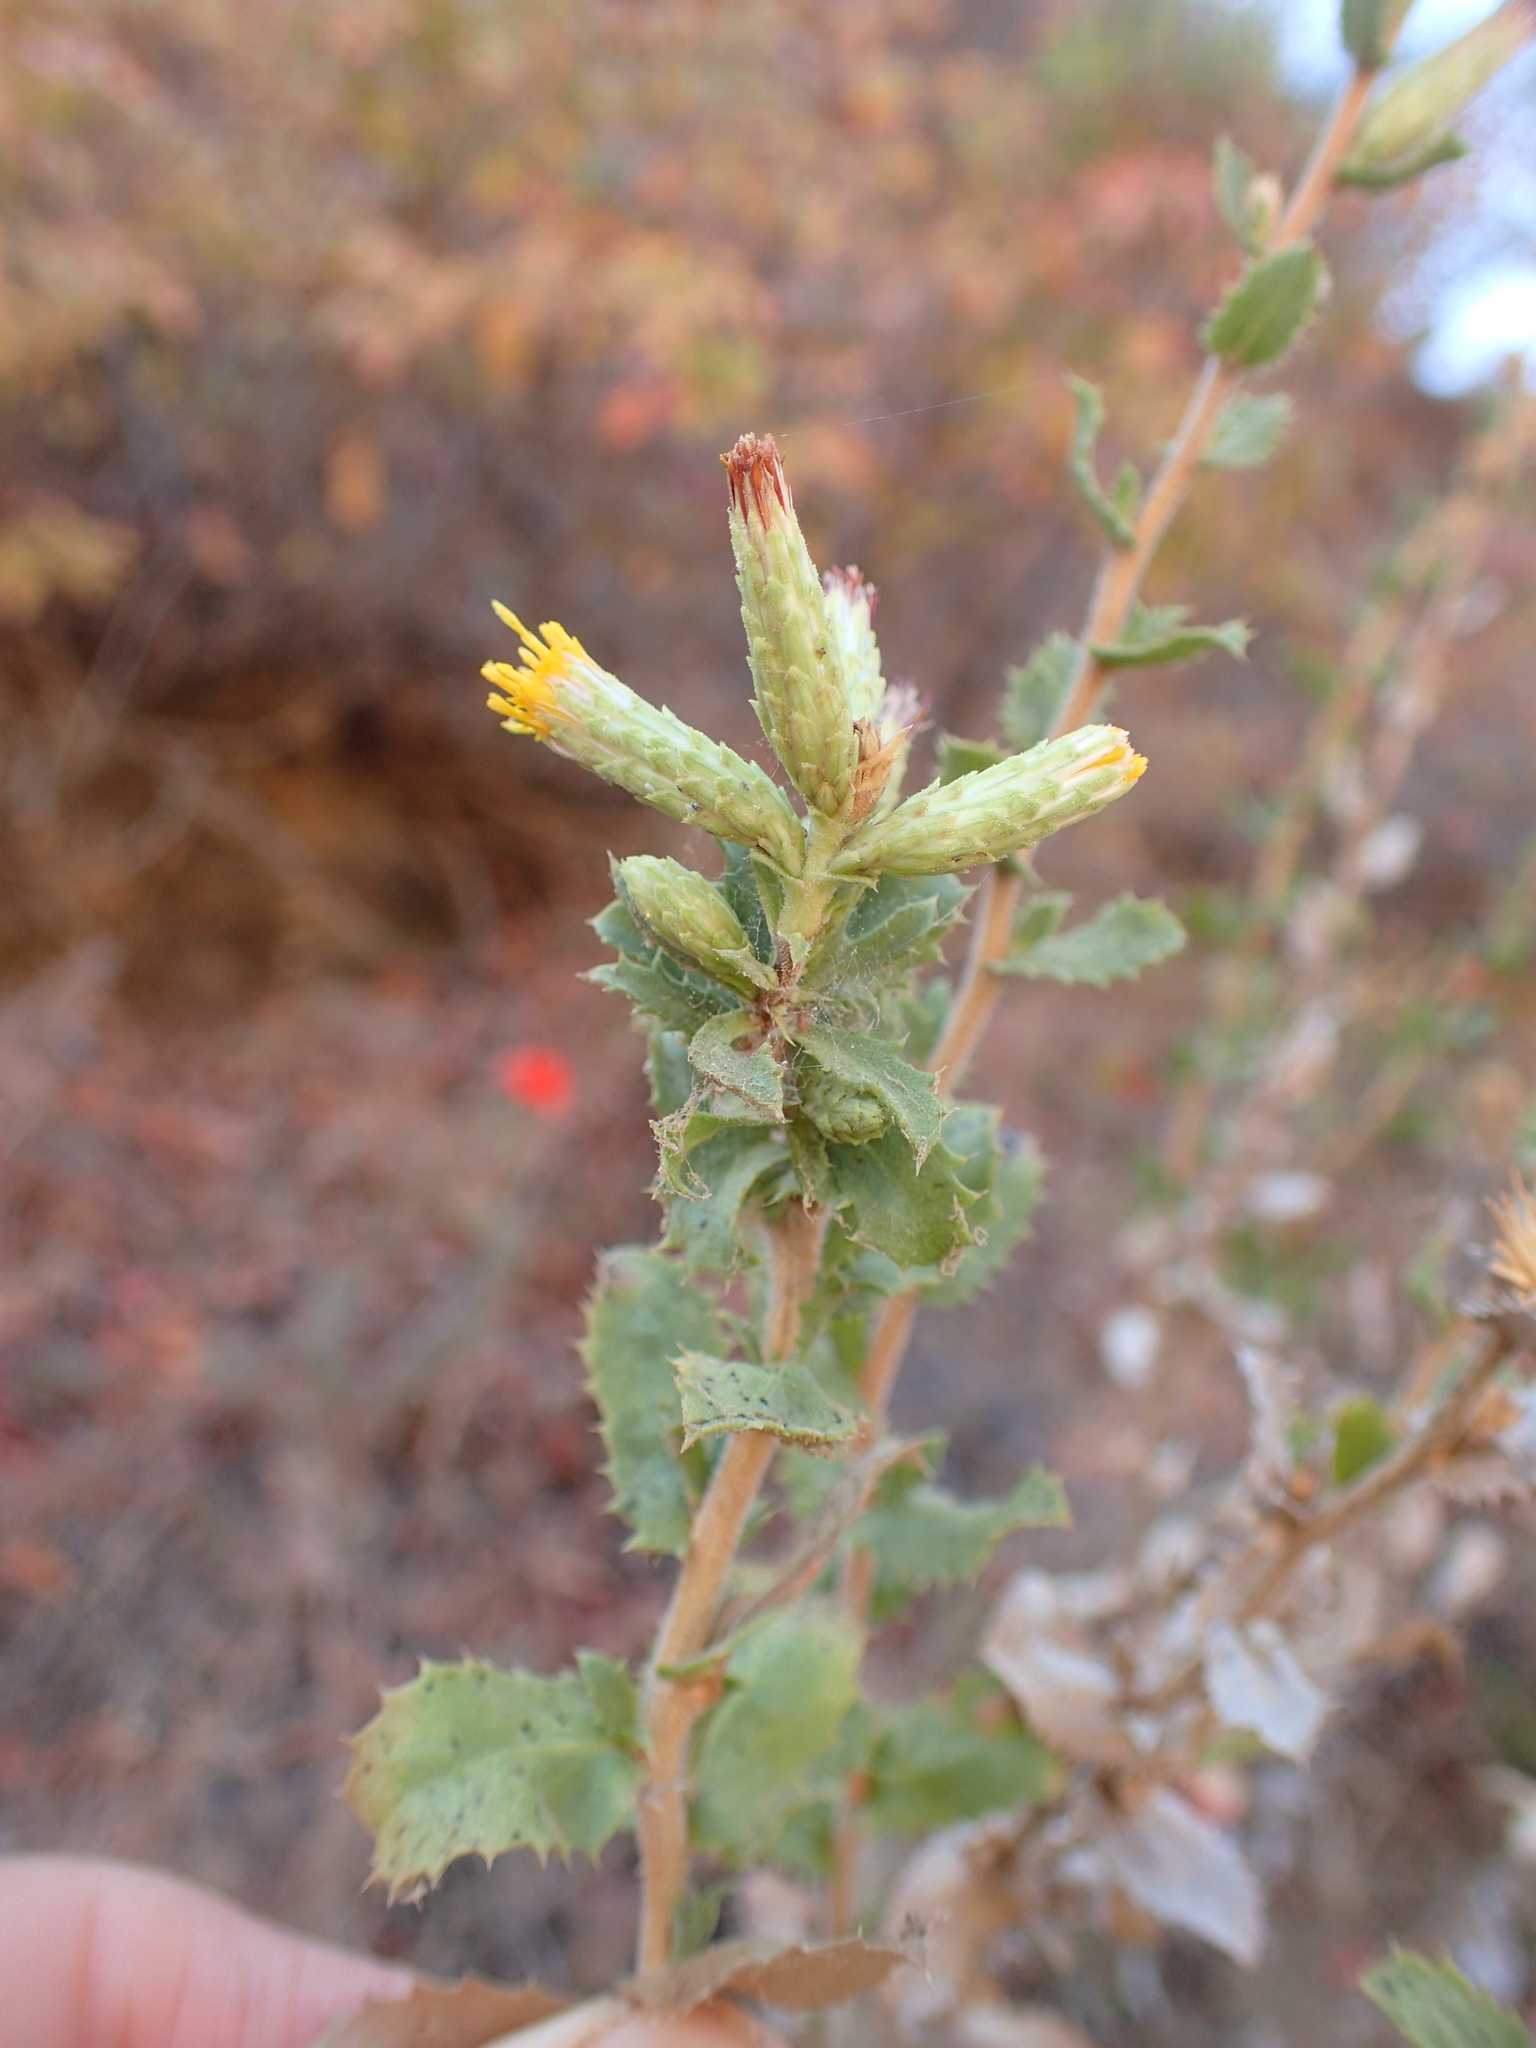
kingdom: Plantae
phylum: Tracheophyta
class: Magnoliopsida
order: Asterales
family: Asteraceae
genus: Hazardia
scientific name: Hazardia squarrosa
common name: Saw-tooth goldenbush
